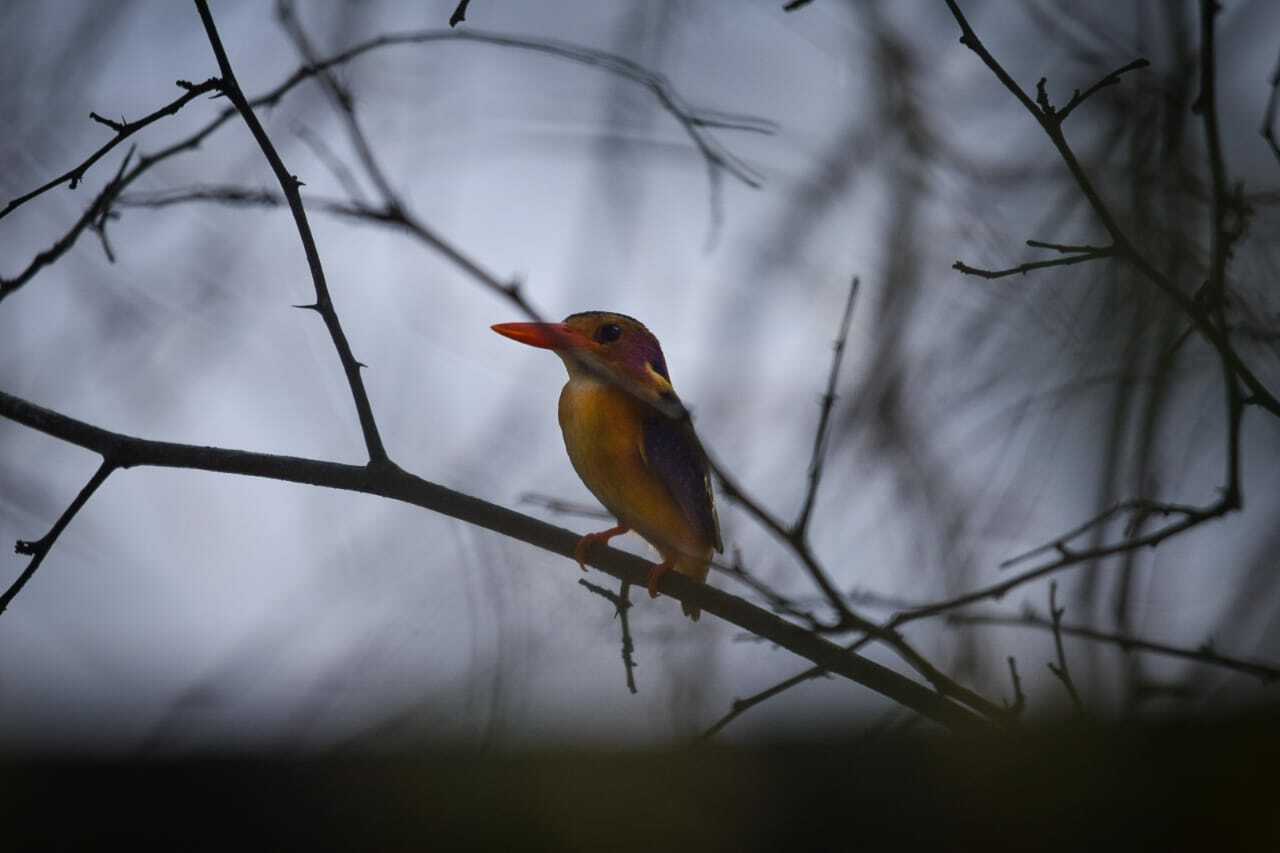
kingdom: Animalia
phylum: Chordata
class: Aves
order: Coraciiformes
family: Alcedinidae
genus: Ispidina
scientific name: Ispidina picta
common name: African pygmy-kingfisher
